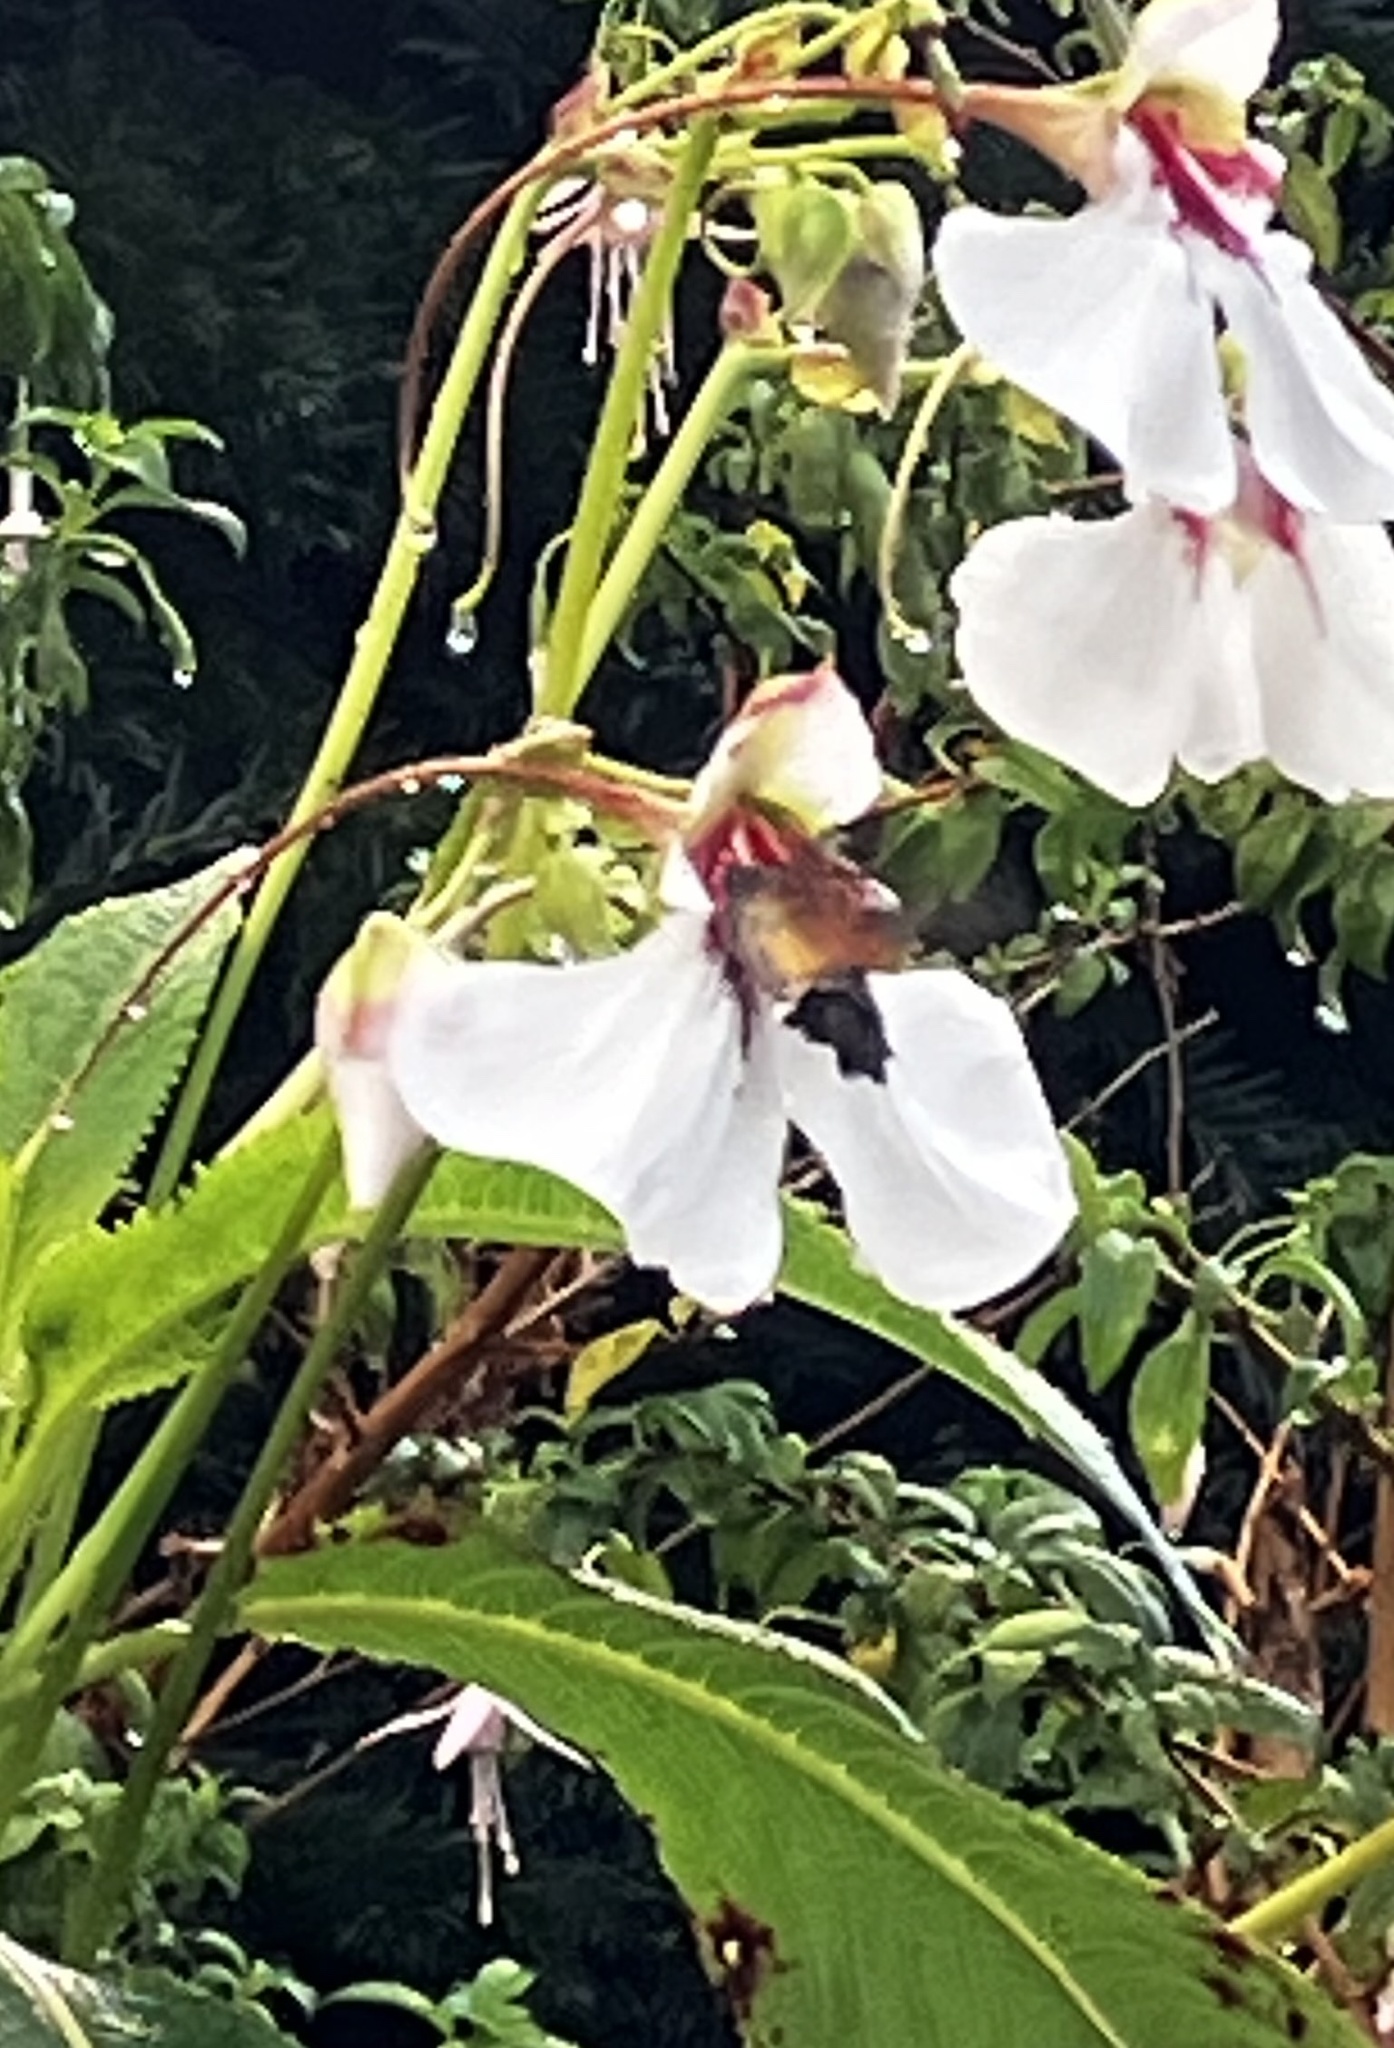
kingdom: Animalia
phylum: Arthropoda
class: Insecta
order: Lepidoptera
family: Sphingidae
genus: Macroglossum
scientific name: Macroglossum stellatarum
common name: Humming-bird hawk-moth
